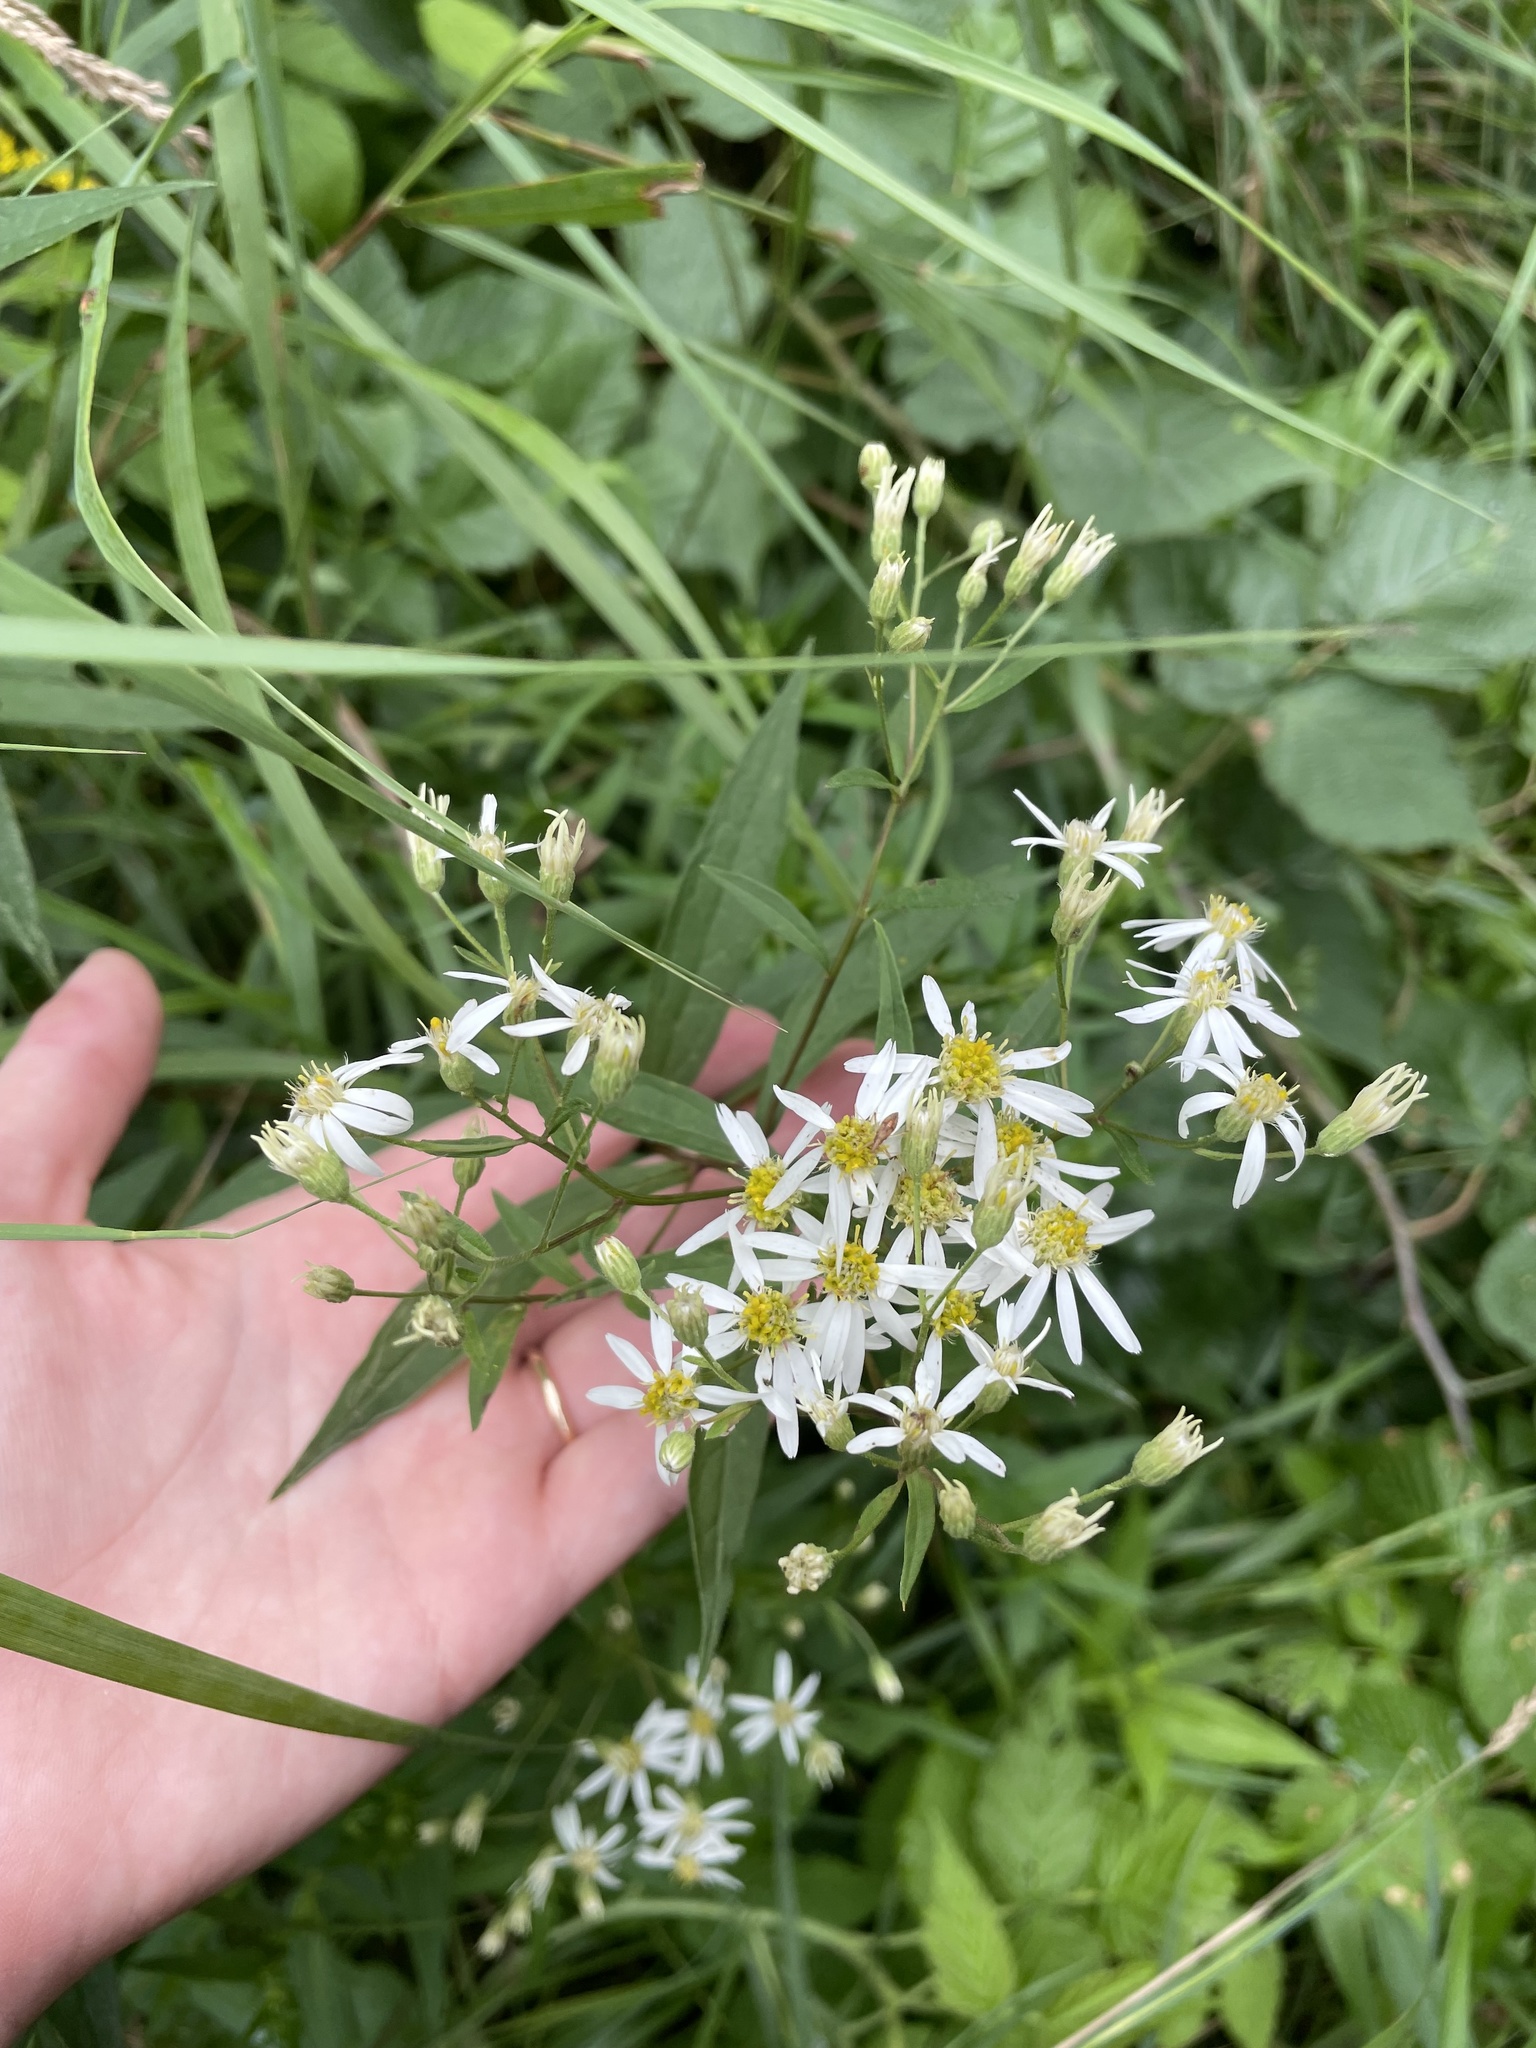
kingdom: Plantae
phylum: Tracheophyta
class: Magnoliopsida
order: Asterales
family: Asteraceae
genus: Doellingeria
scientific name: Doellingeria umbellata
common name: Flat-top white aster
